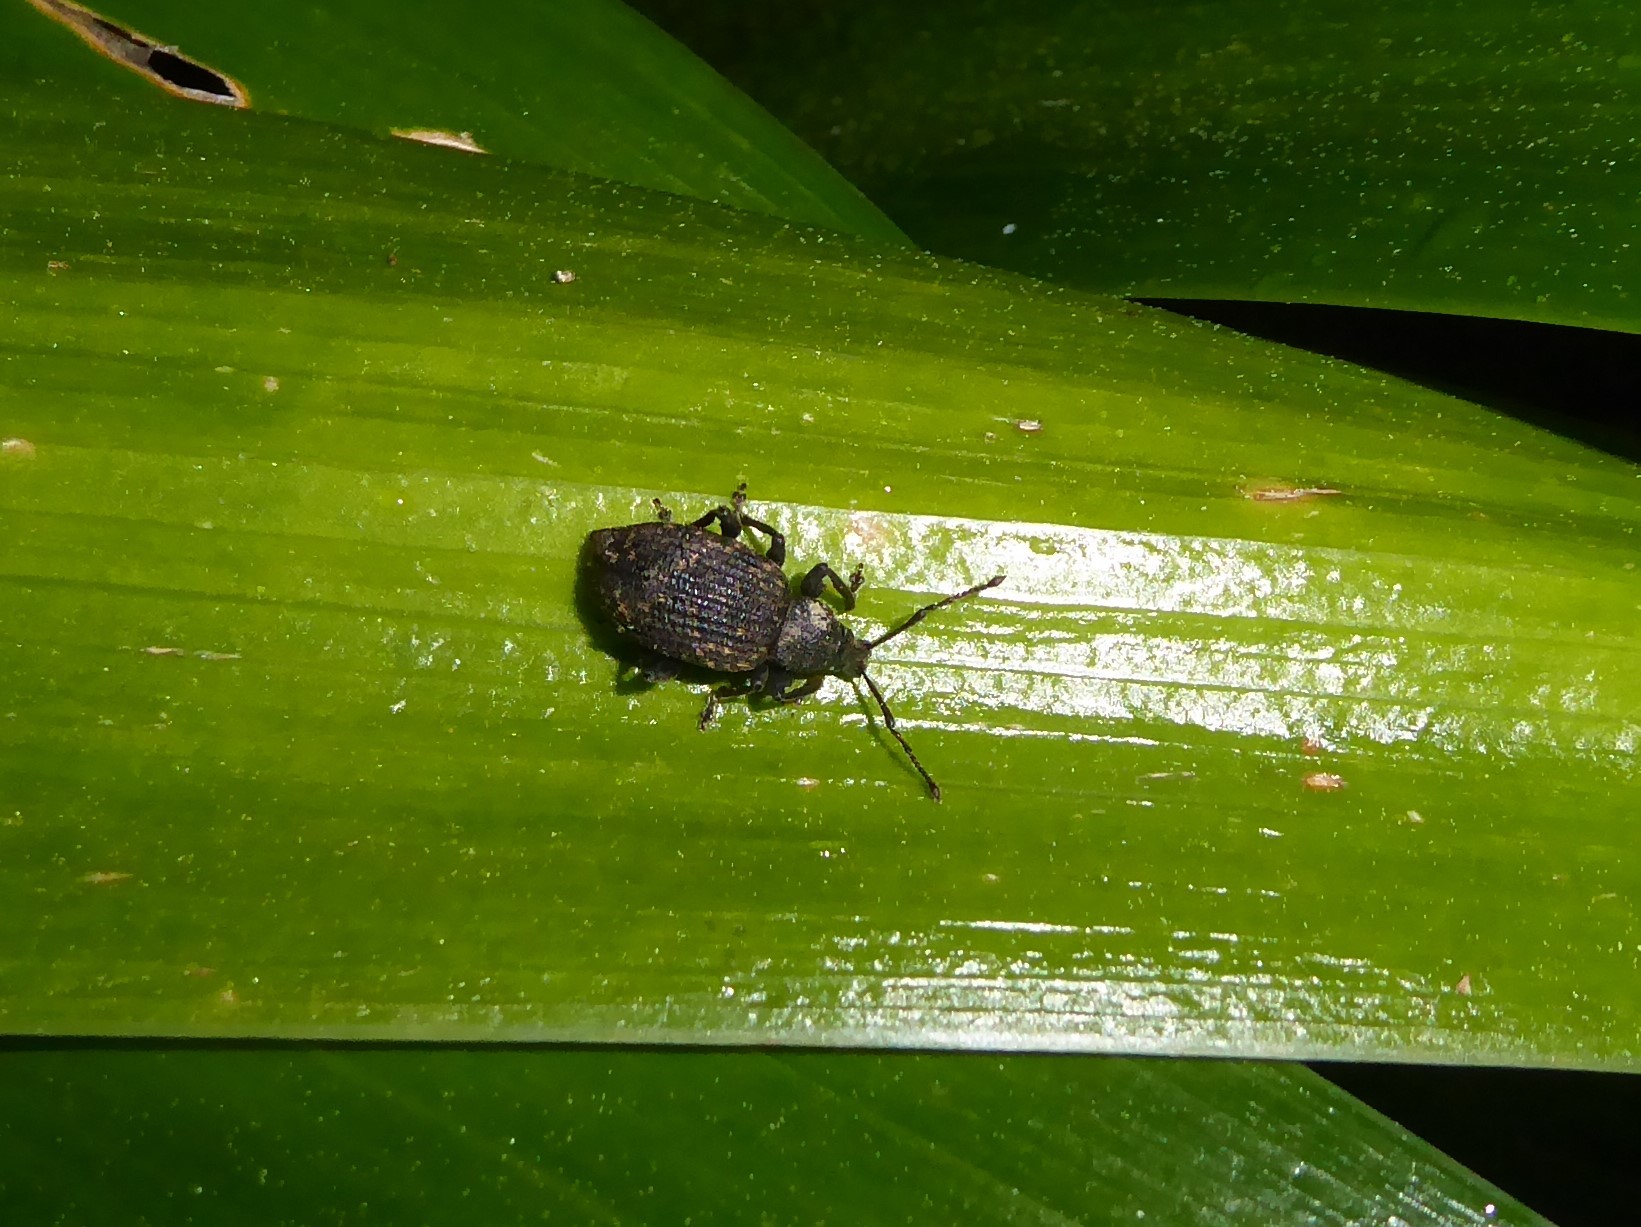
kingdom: Animalia
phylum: Arthropoda
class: Insecta
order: Coleoptera
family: Curculionidae
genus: Otiorhynchus
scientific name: Otiorhynchus sulcatus
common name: Black vine weevil
